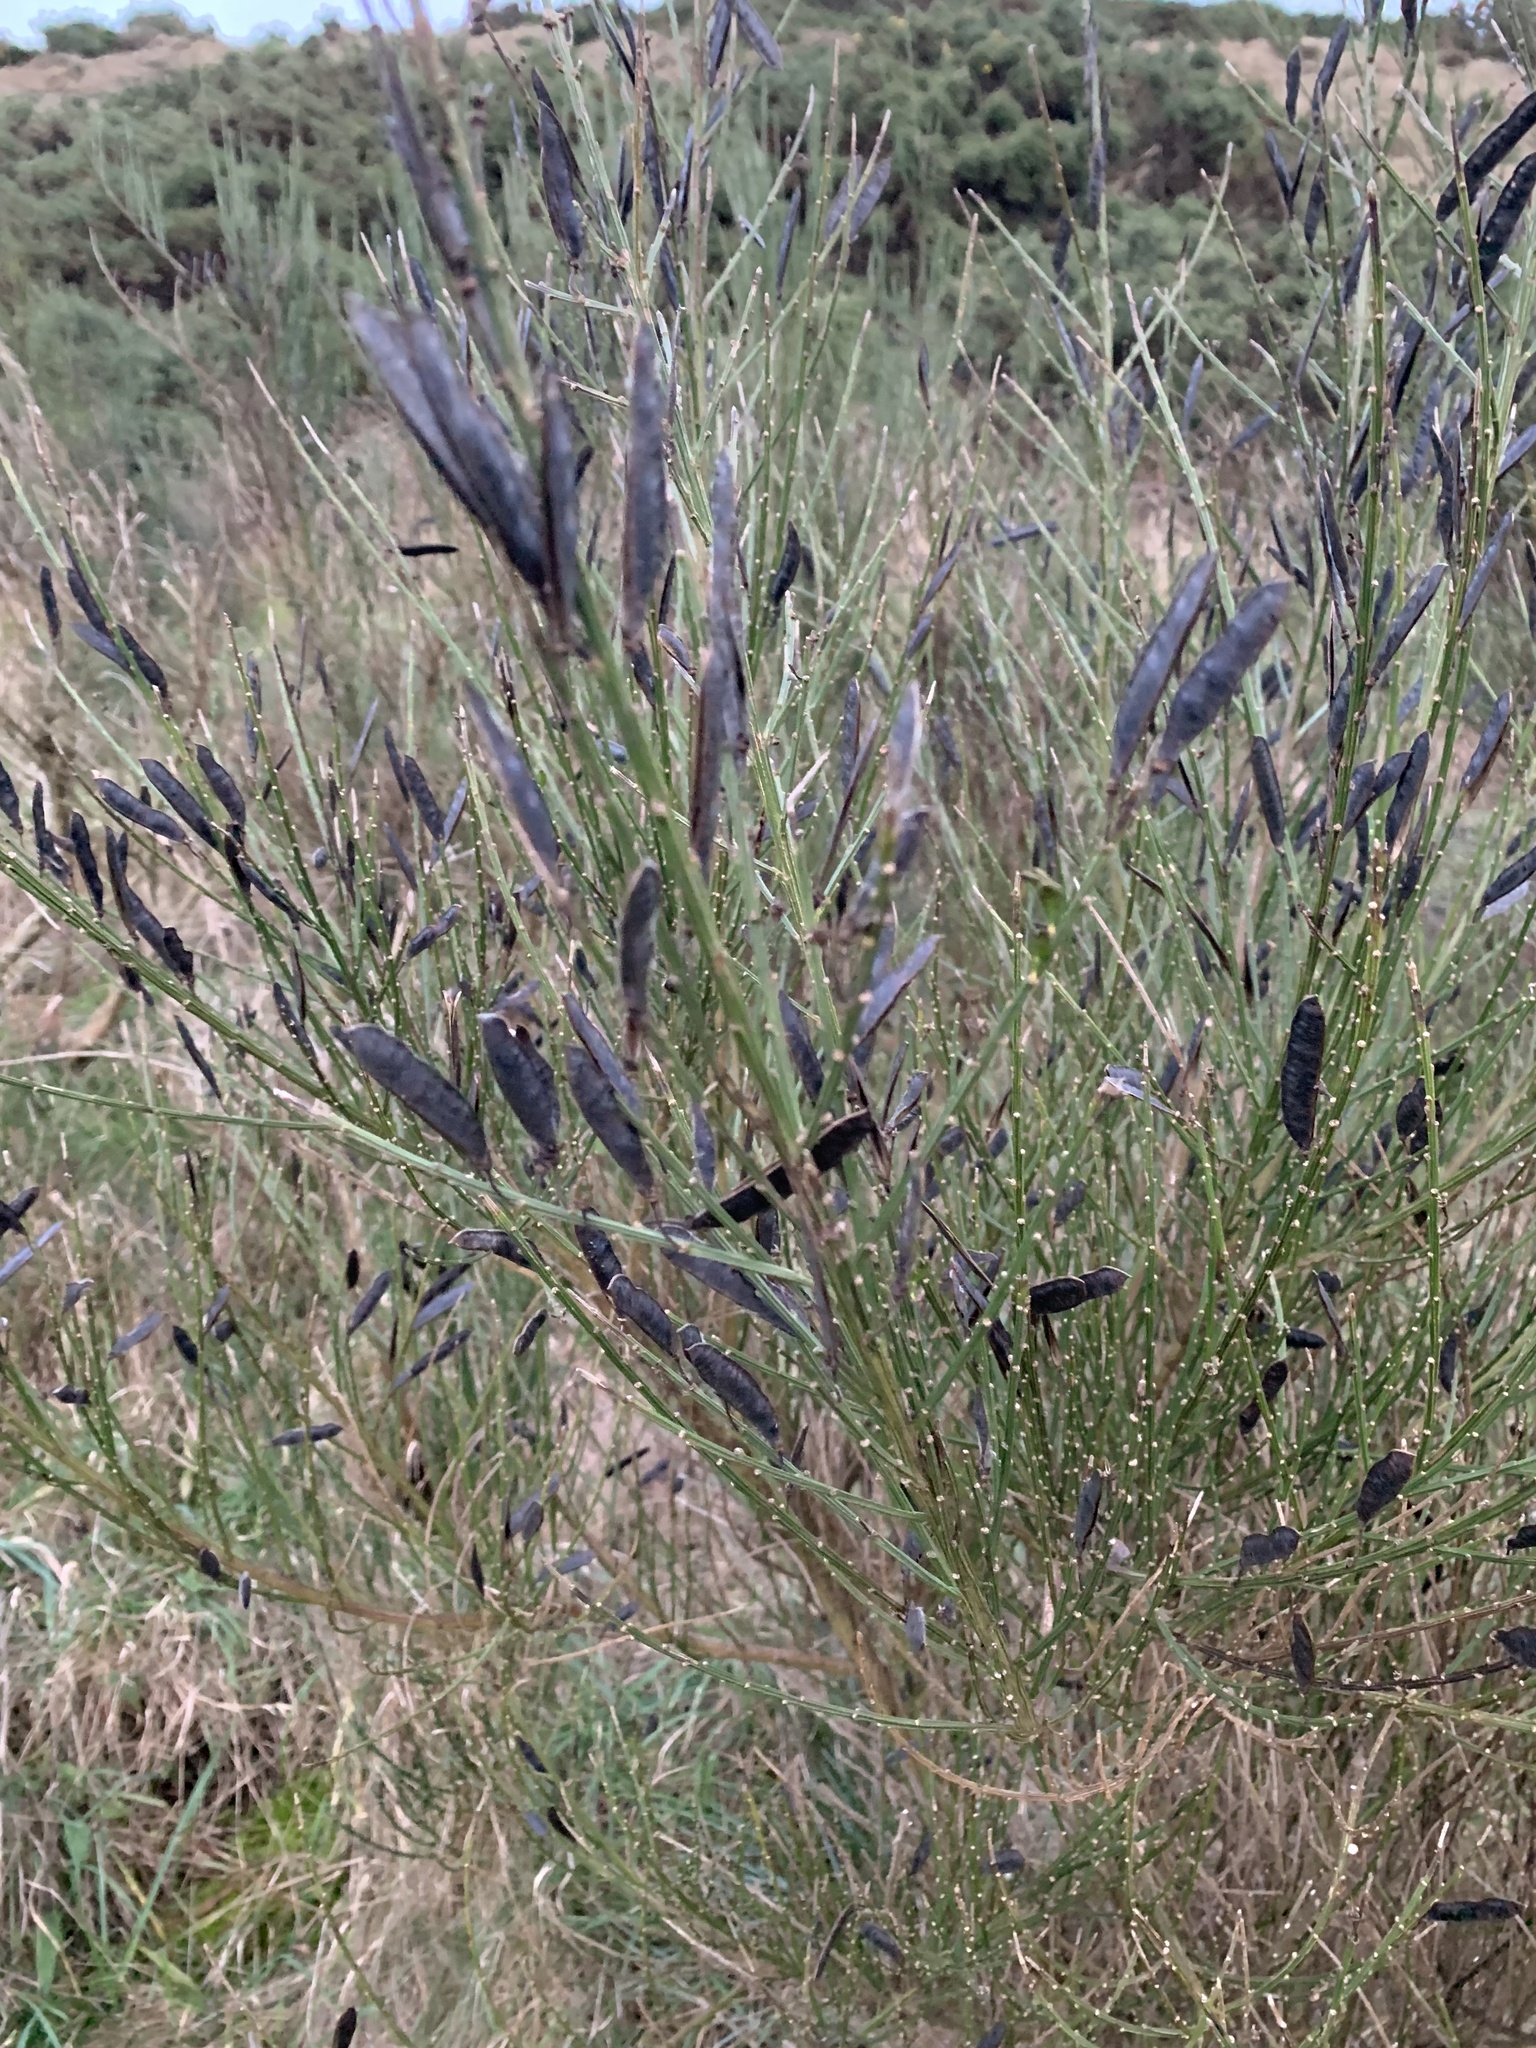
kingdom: Plantae
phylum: Tracheophyta
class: Magnoliopsida
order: Fabales
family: Fabaceae
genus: Cytisus
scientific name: Cytisus scoparius
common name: Scotch broom
